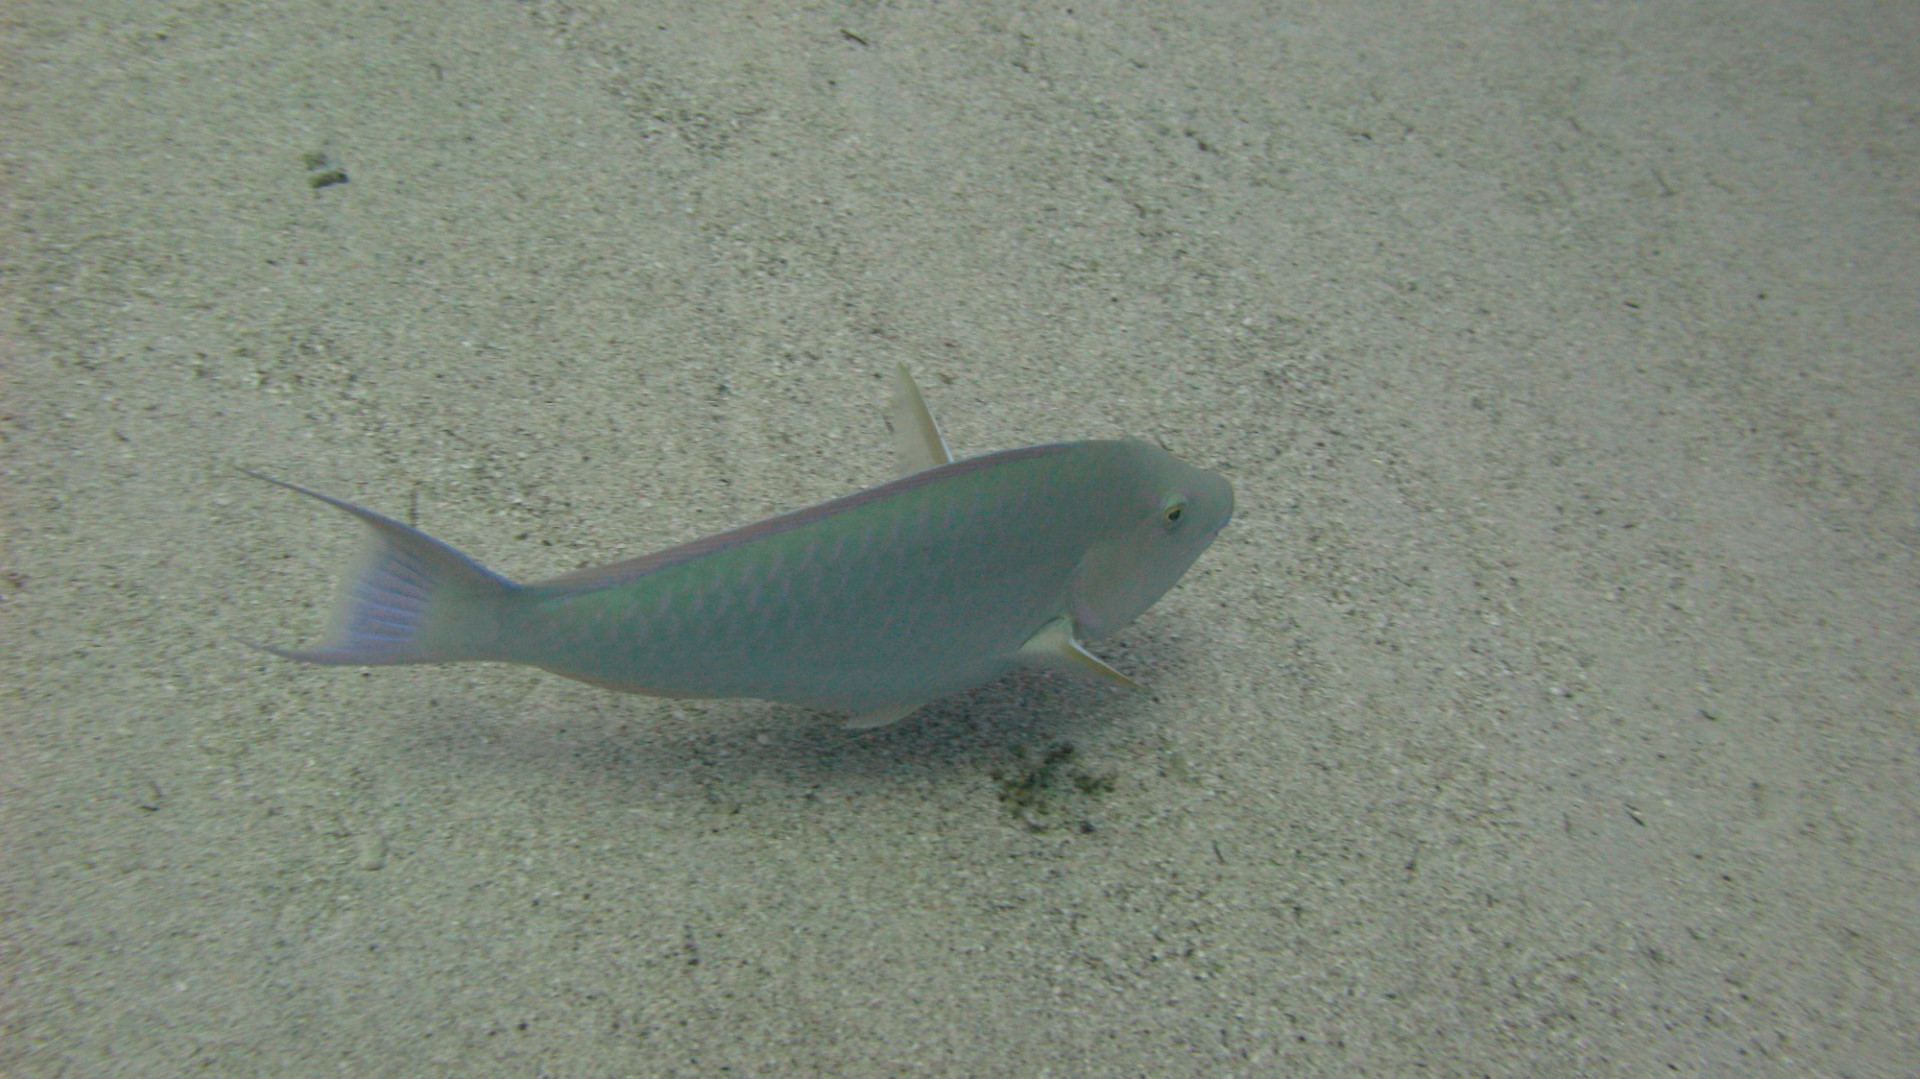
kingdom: Animalia
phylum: Chordata
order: Perciformes
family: Scaridae
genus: Hipposcarus
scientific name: Hipposcarus harid
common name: Candelamoa parrotfish
